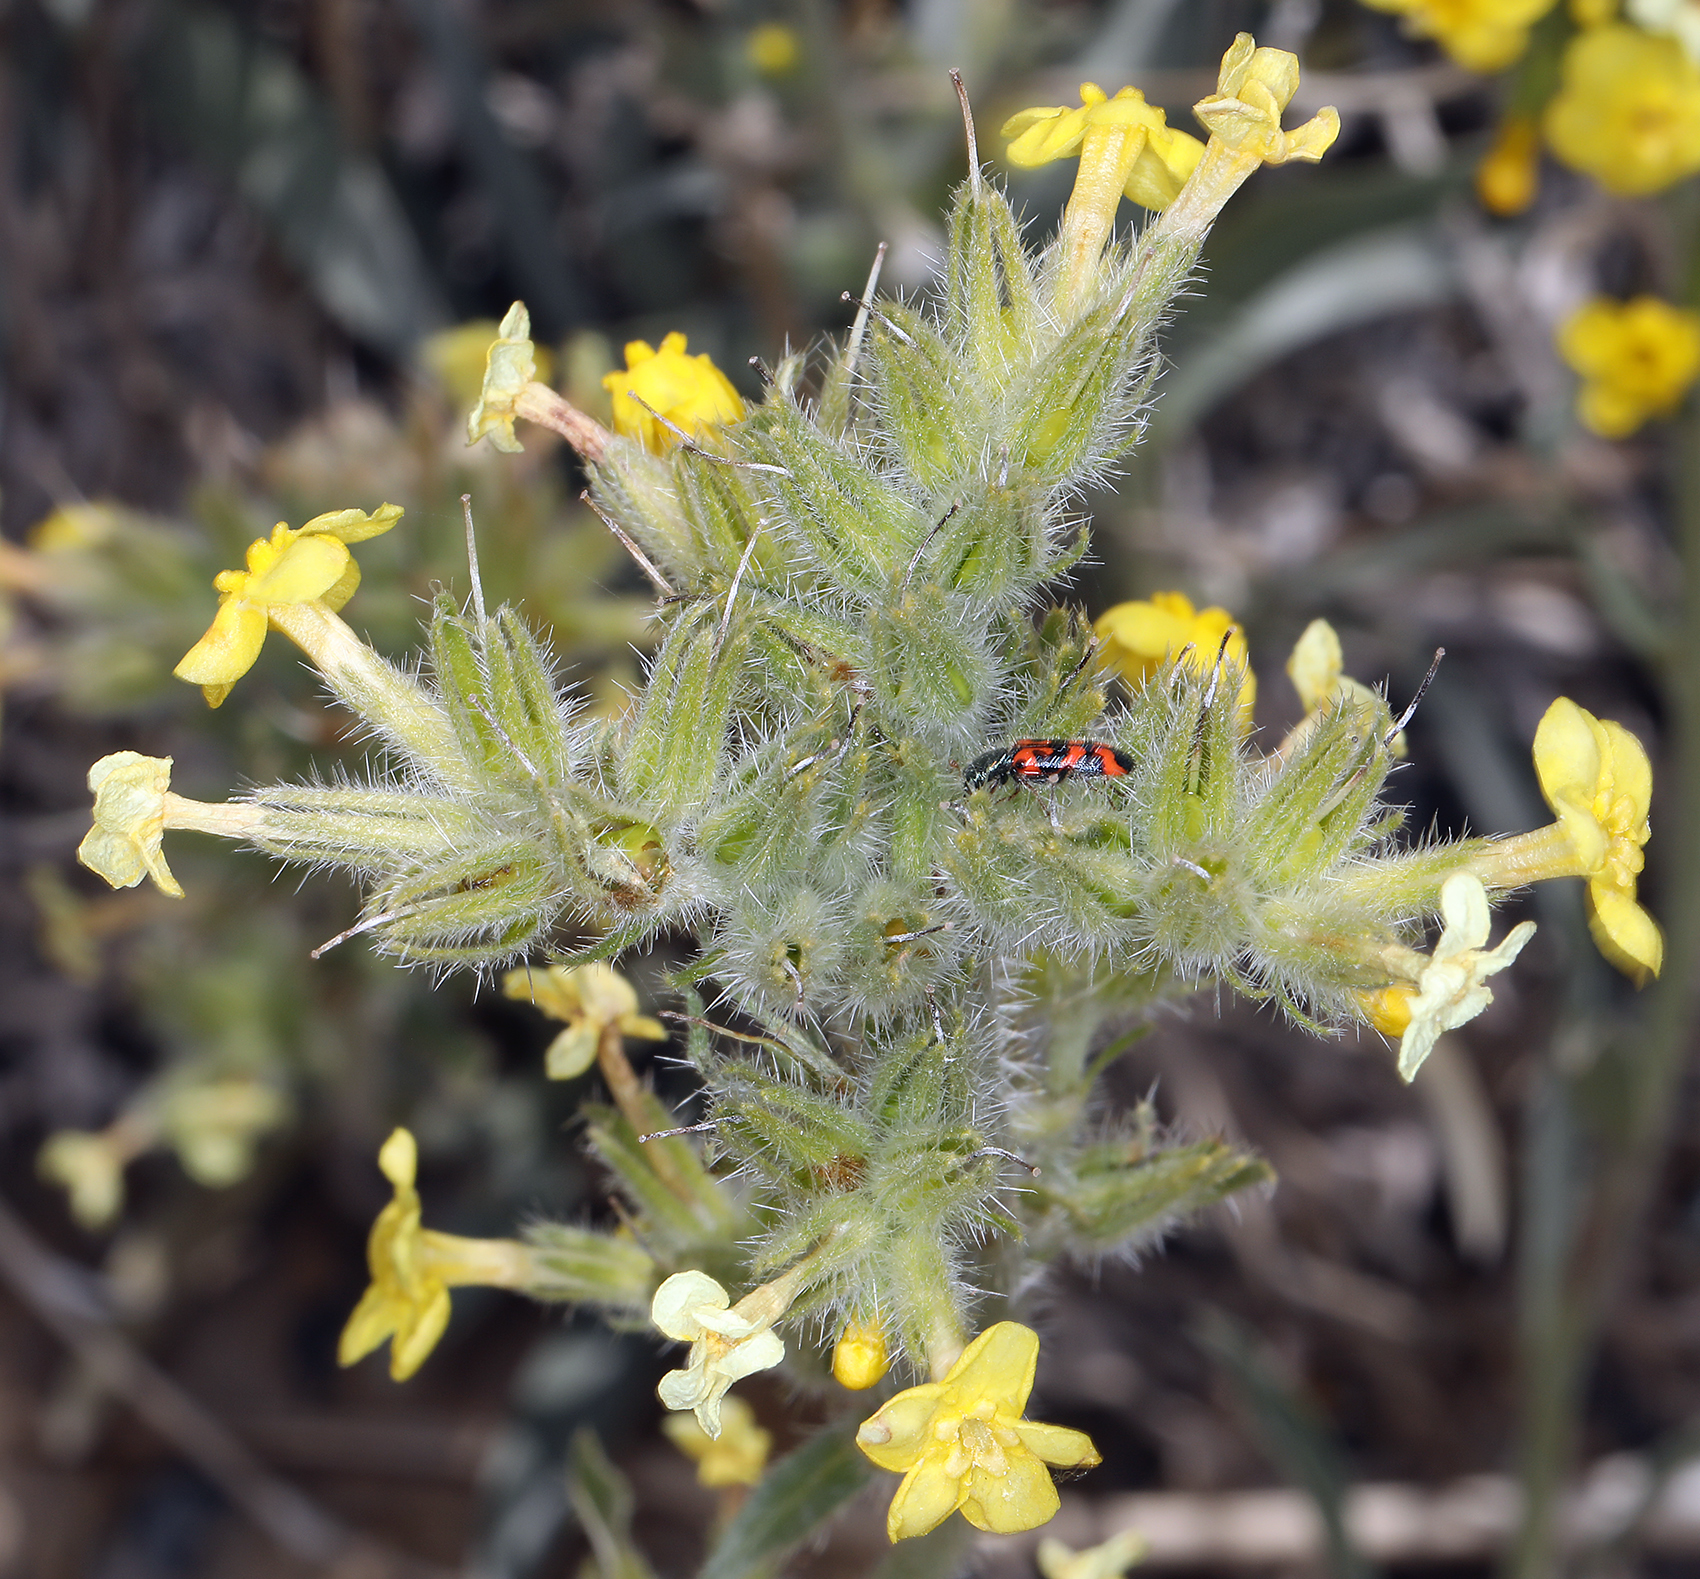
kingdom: Plantae
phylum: Tracheophyta
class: Magnoliopsida
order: Boraginales
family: Boraginaceae
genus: Oreocarya
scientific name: Oreocarya confertiflora
